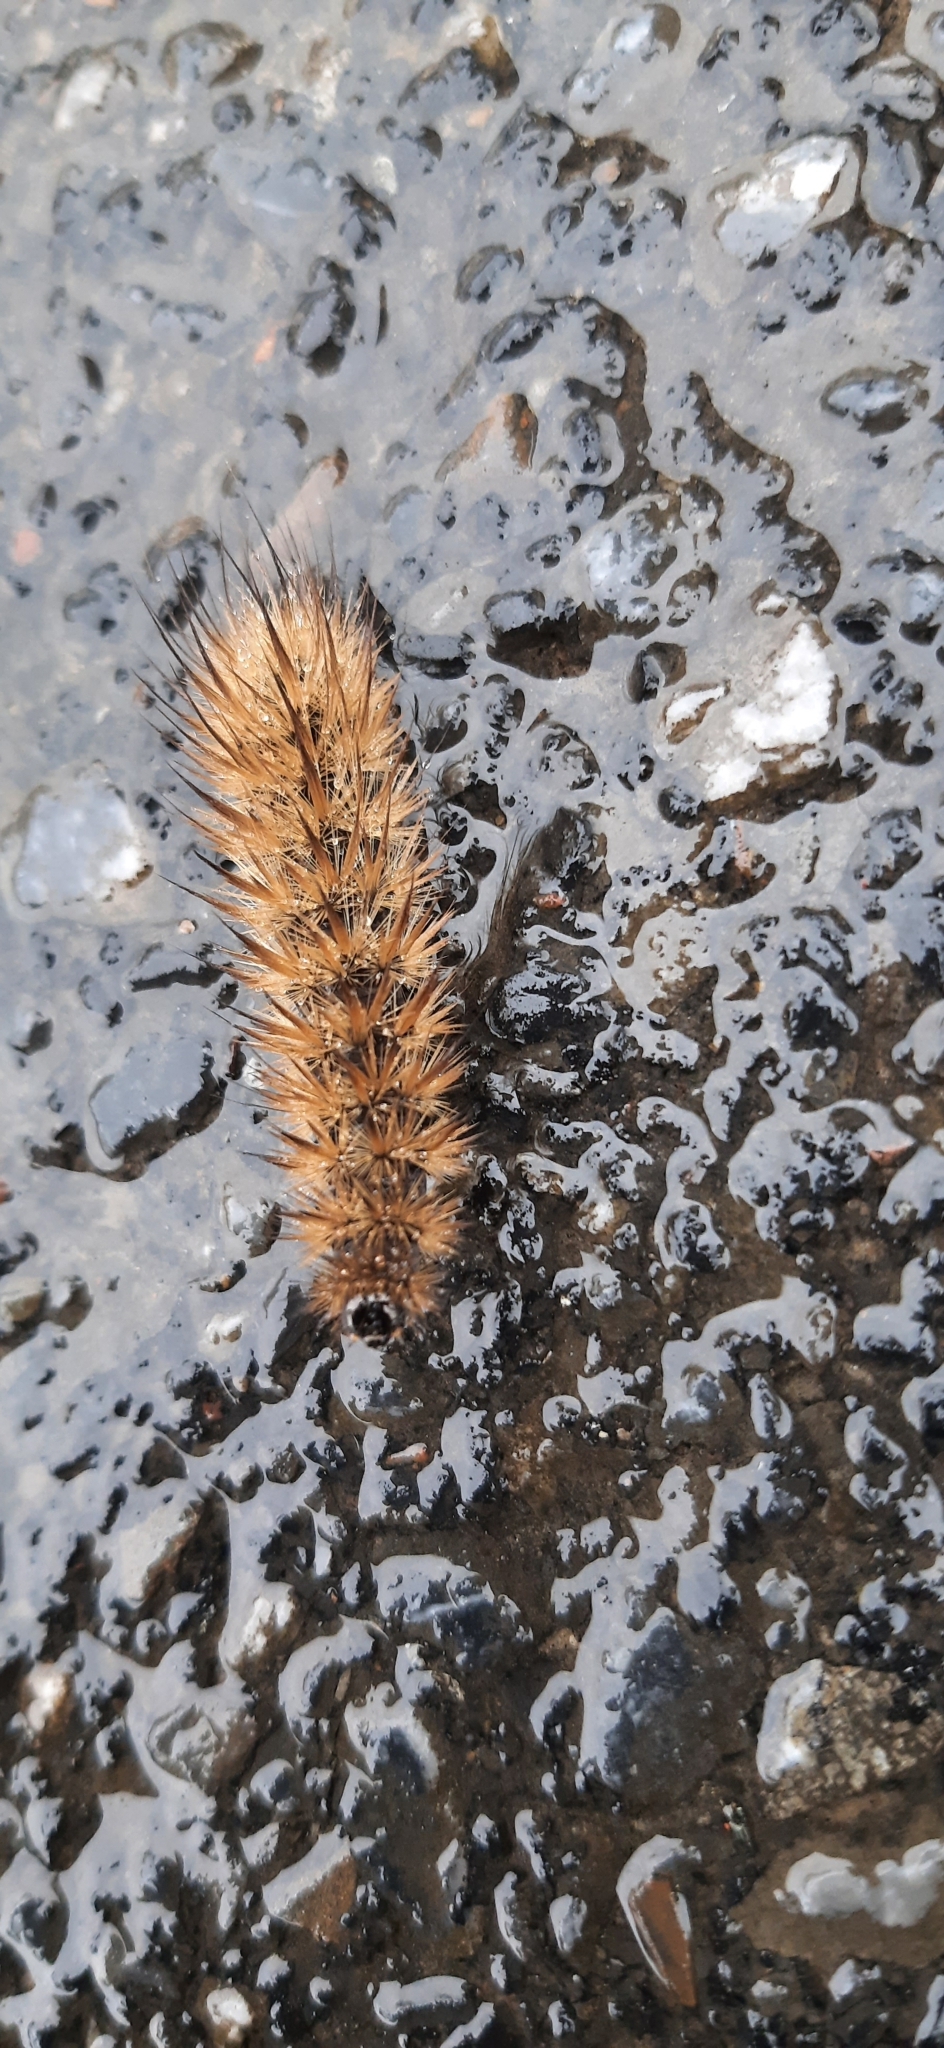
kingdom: Animalia
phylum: Arthropoda
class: Insecta
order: Lepidoptera
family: Erebidae
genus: Phragmatobia
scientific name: Phragmatobia fuliginosa
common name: Ruby tiger
